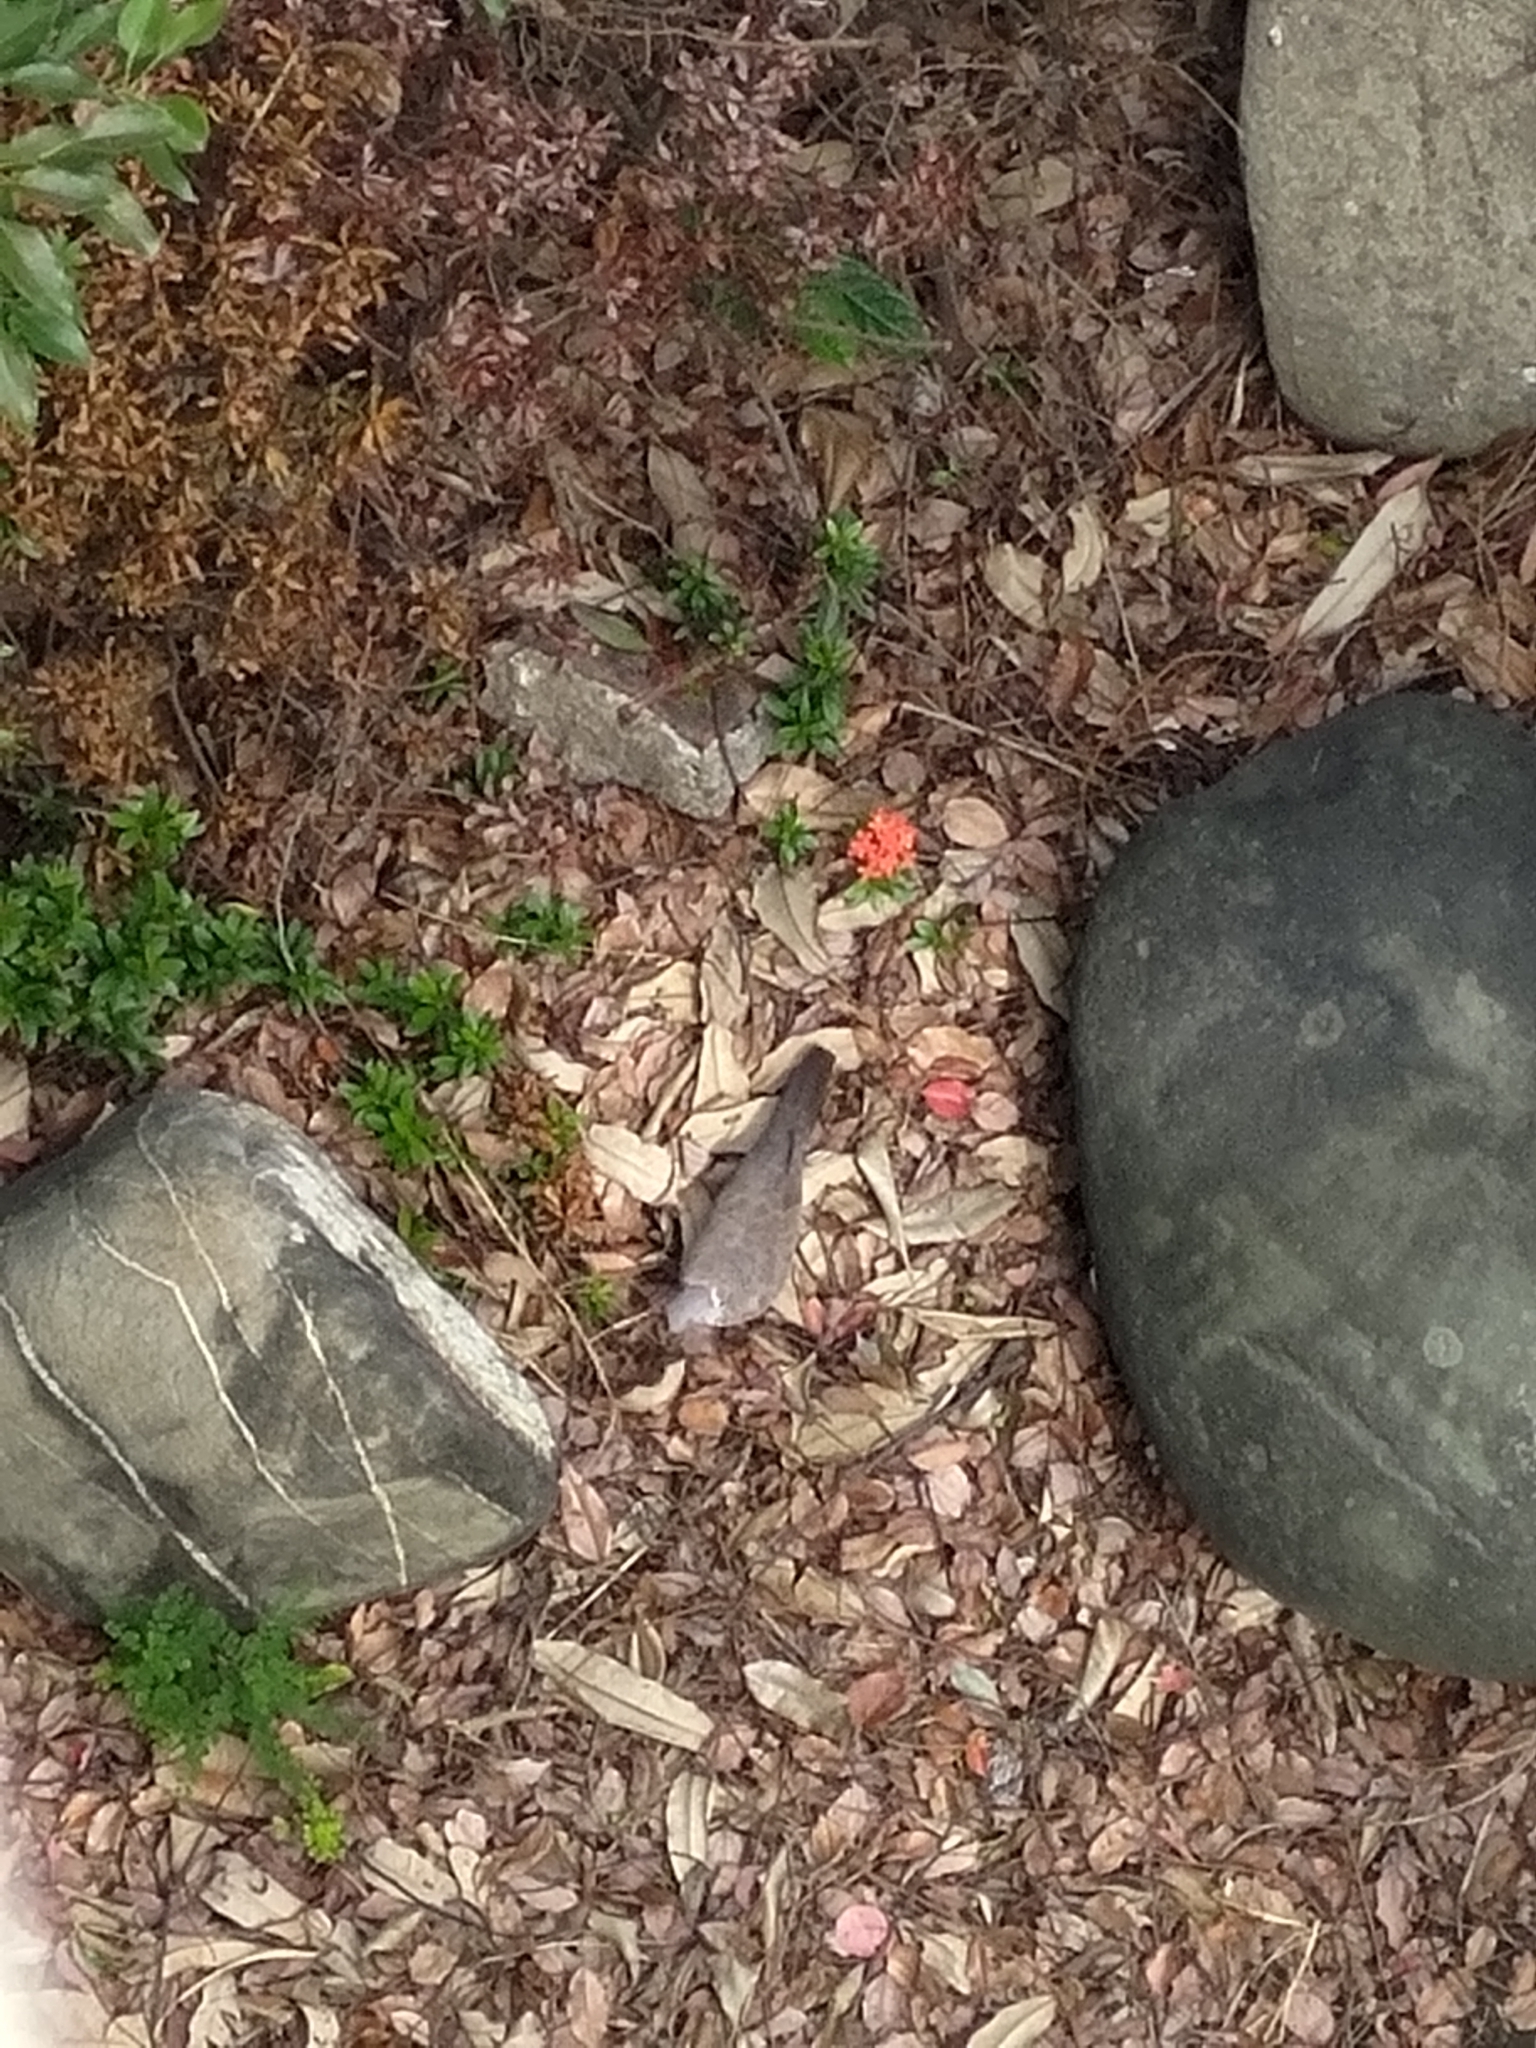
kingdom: Animalia
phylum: Chordata
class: Aves
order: Columbiformes
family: Columbidae
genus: Spilopelia
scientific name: Spilopelia chinensis
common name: Spotted dove
